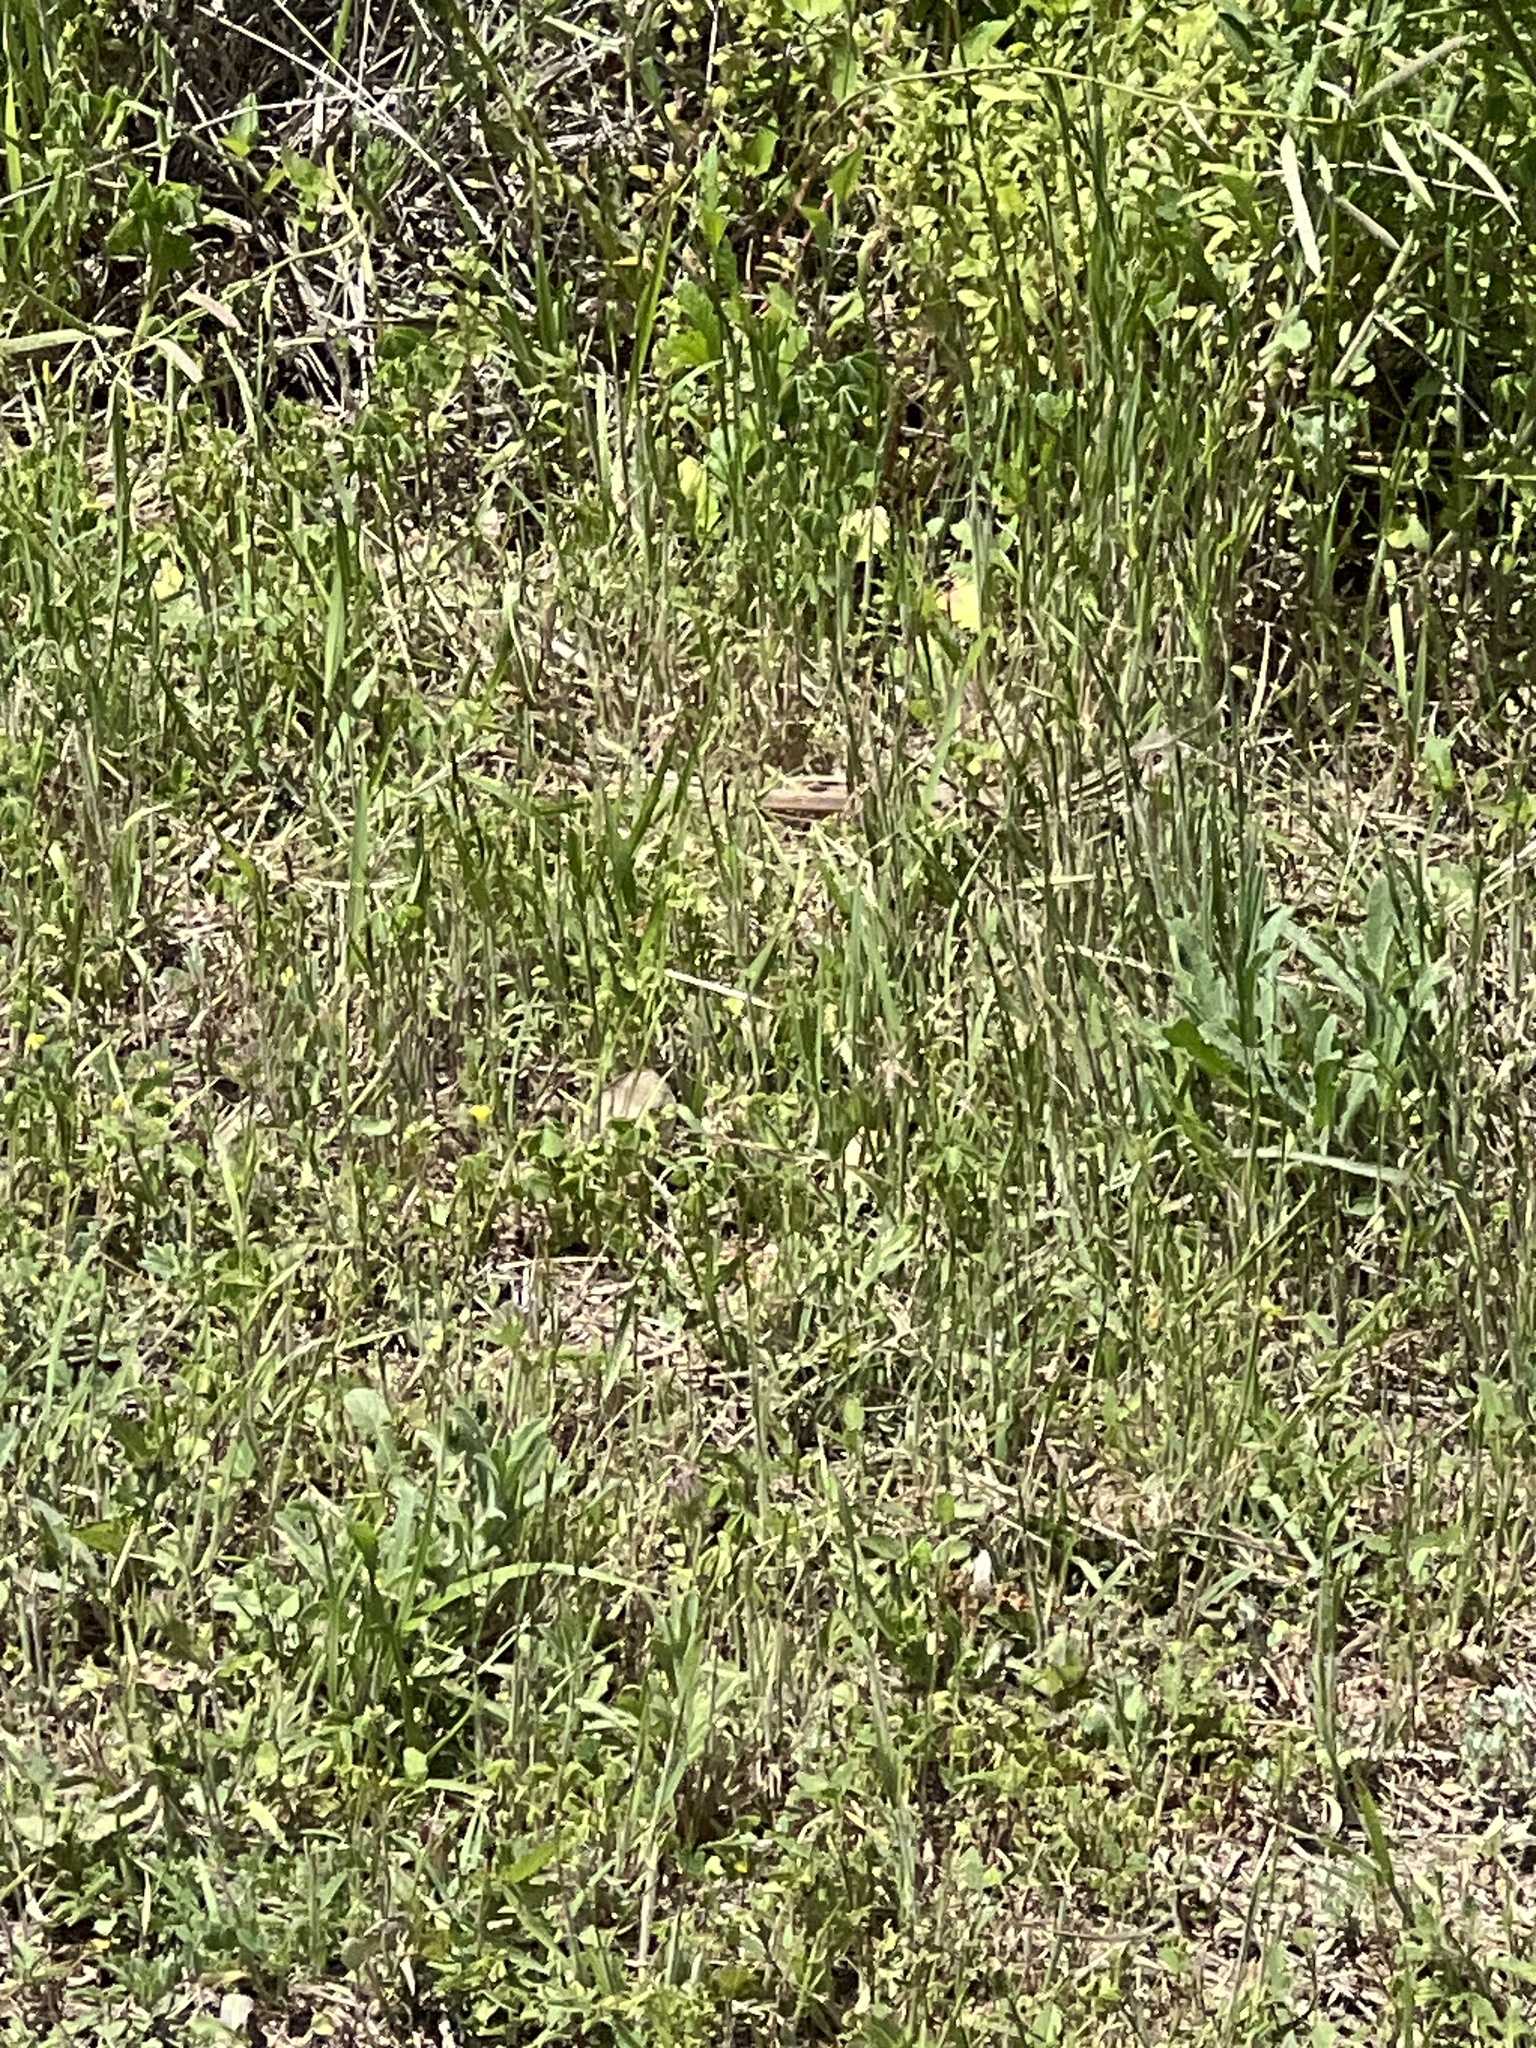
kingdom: Animalia
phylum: Chordata
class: Squamata
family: Teiidae
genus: Aspidoscelis
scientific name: Aspidoscelis gularis
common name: Eastern spotted whiptail
